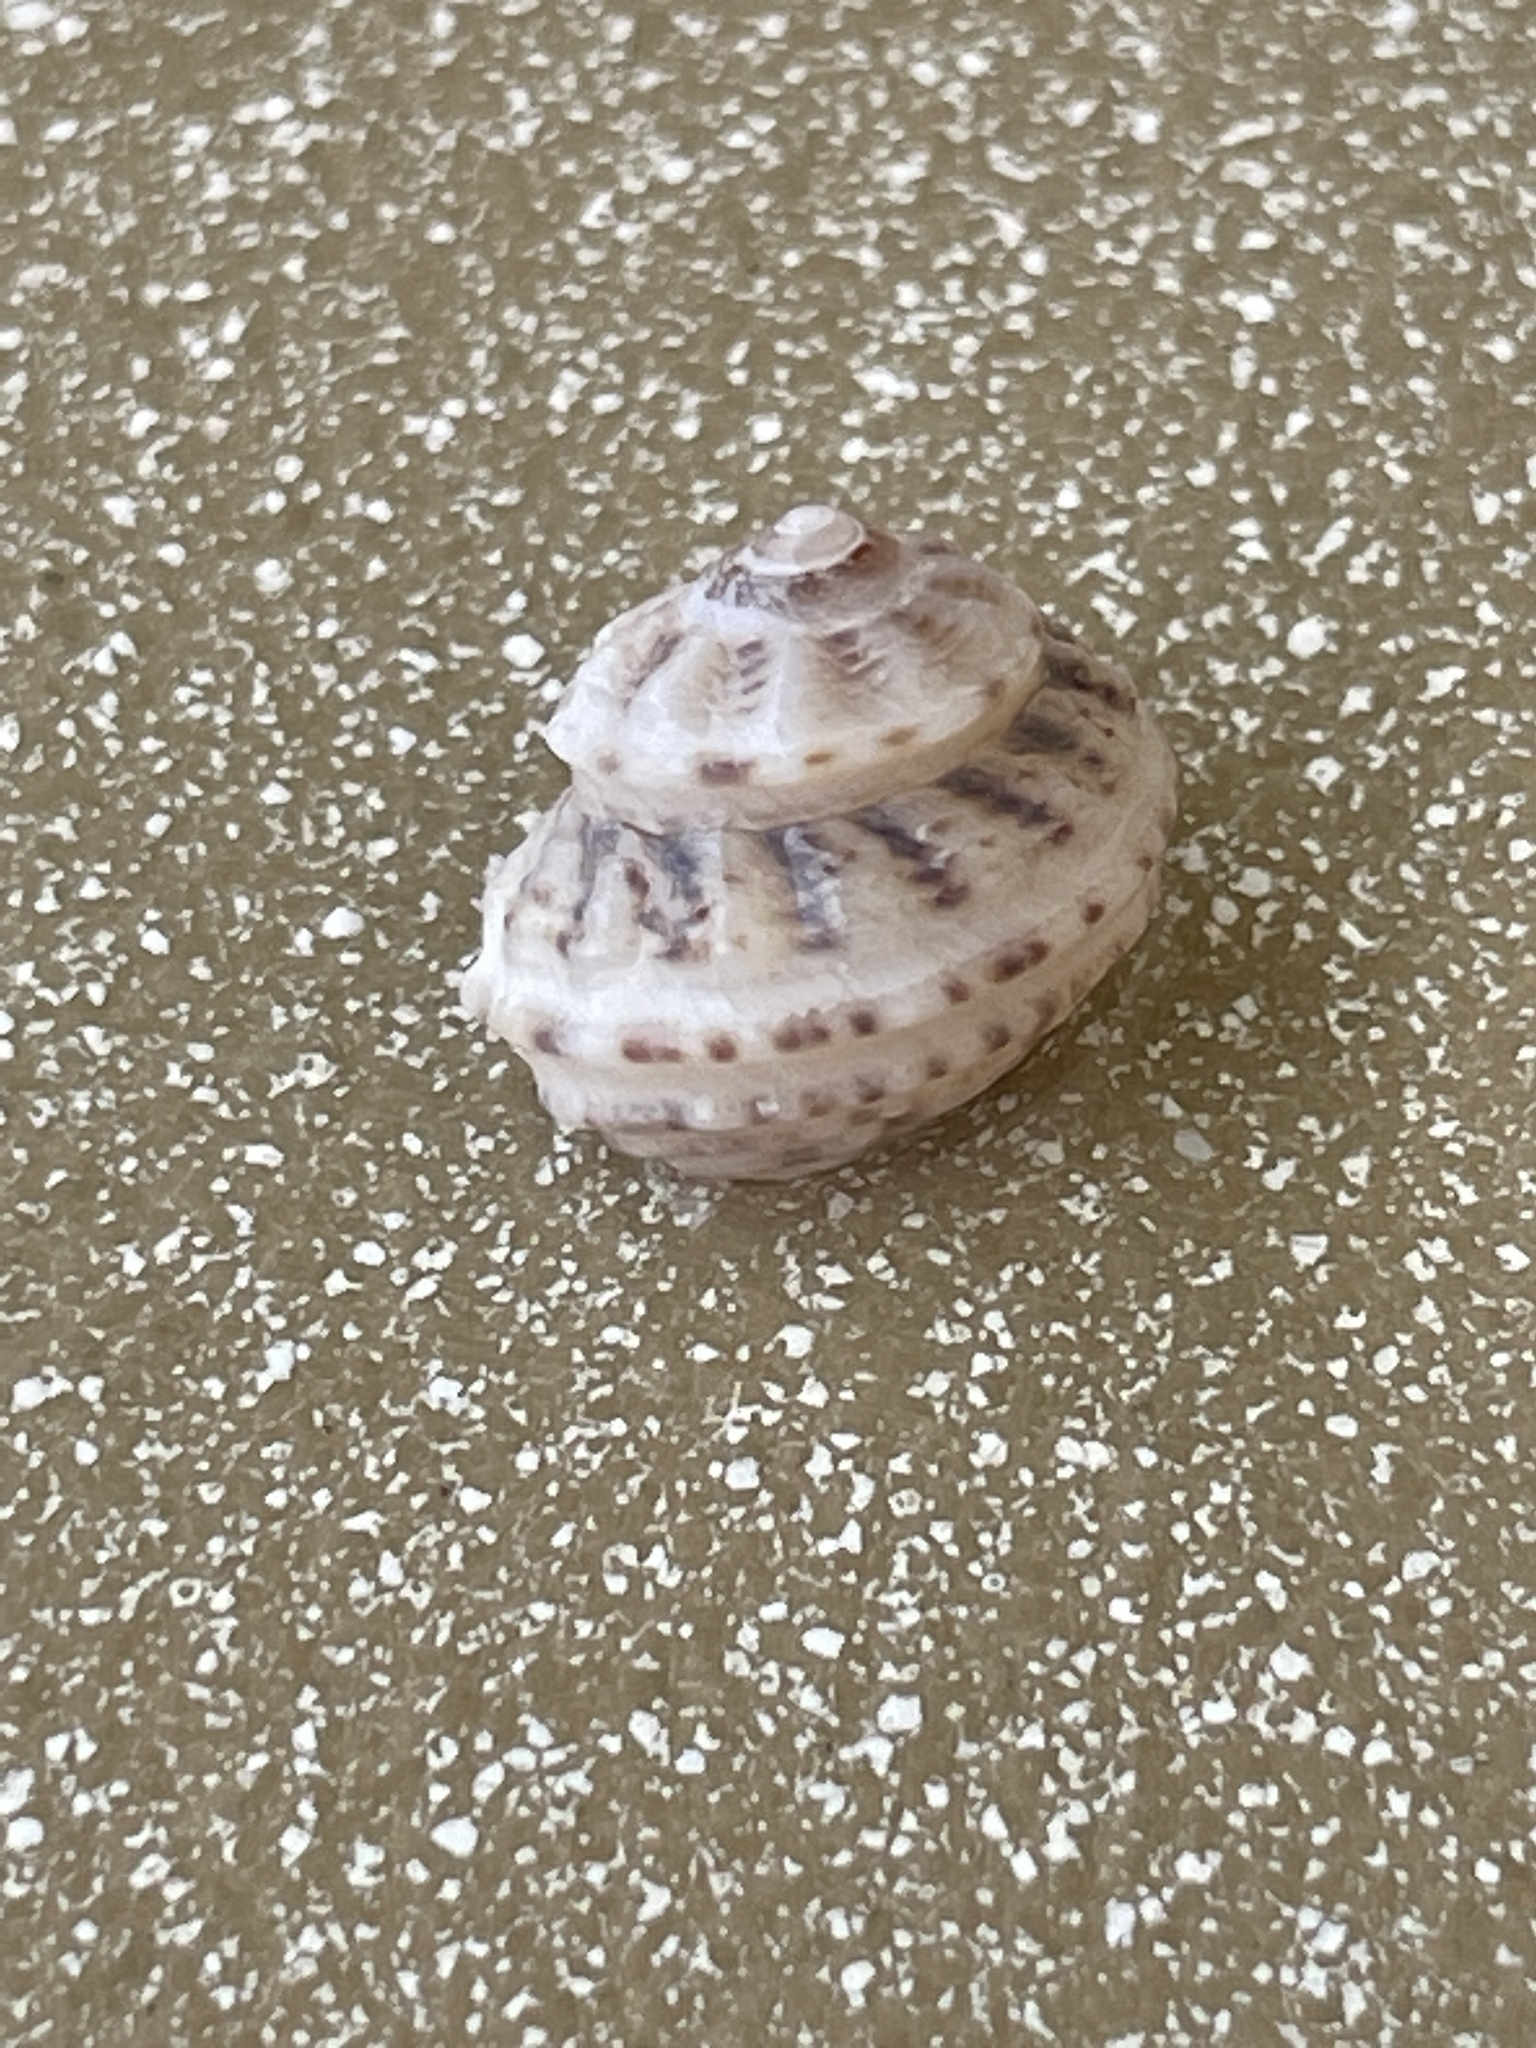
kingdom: Animalia
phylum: Mollusca
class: Gastropoda
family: Modulidae
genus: Modulus
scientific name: Modulus modulus
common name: Atlantic modulus
